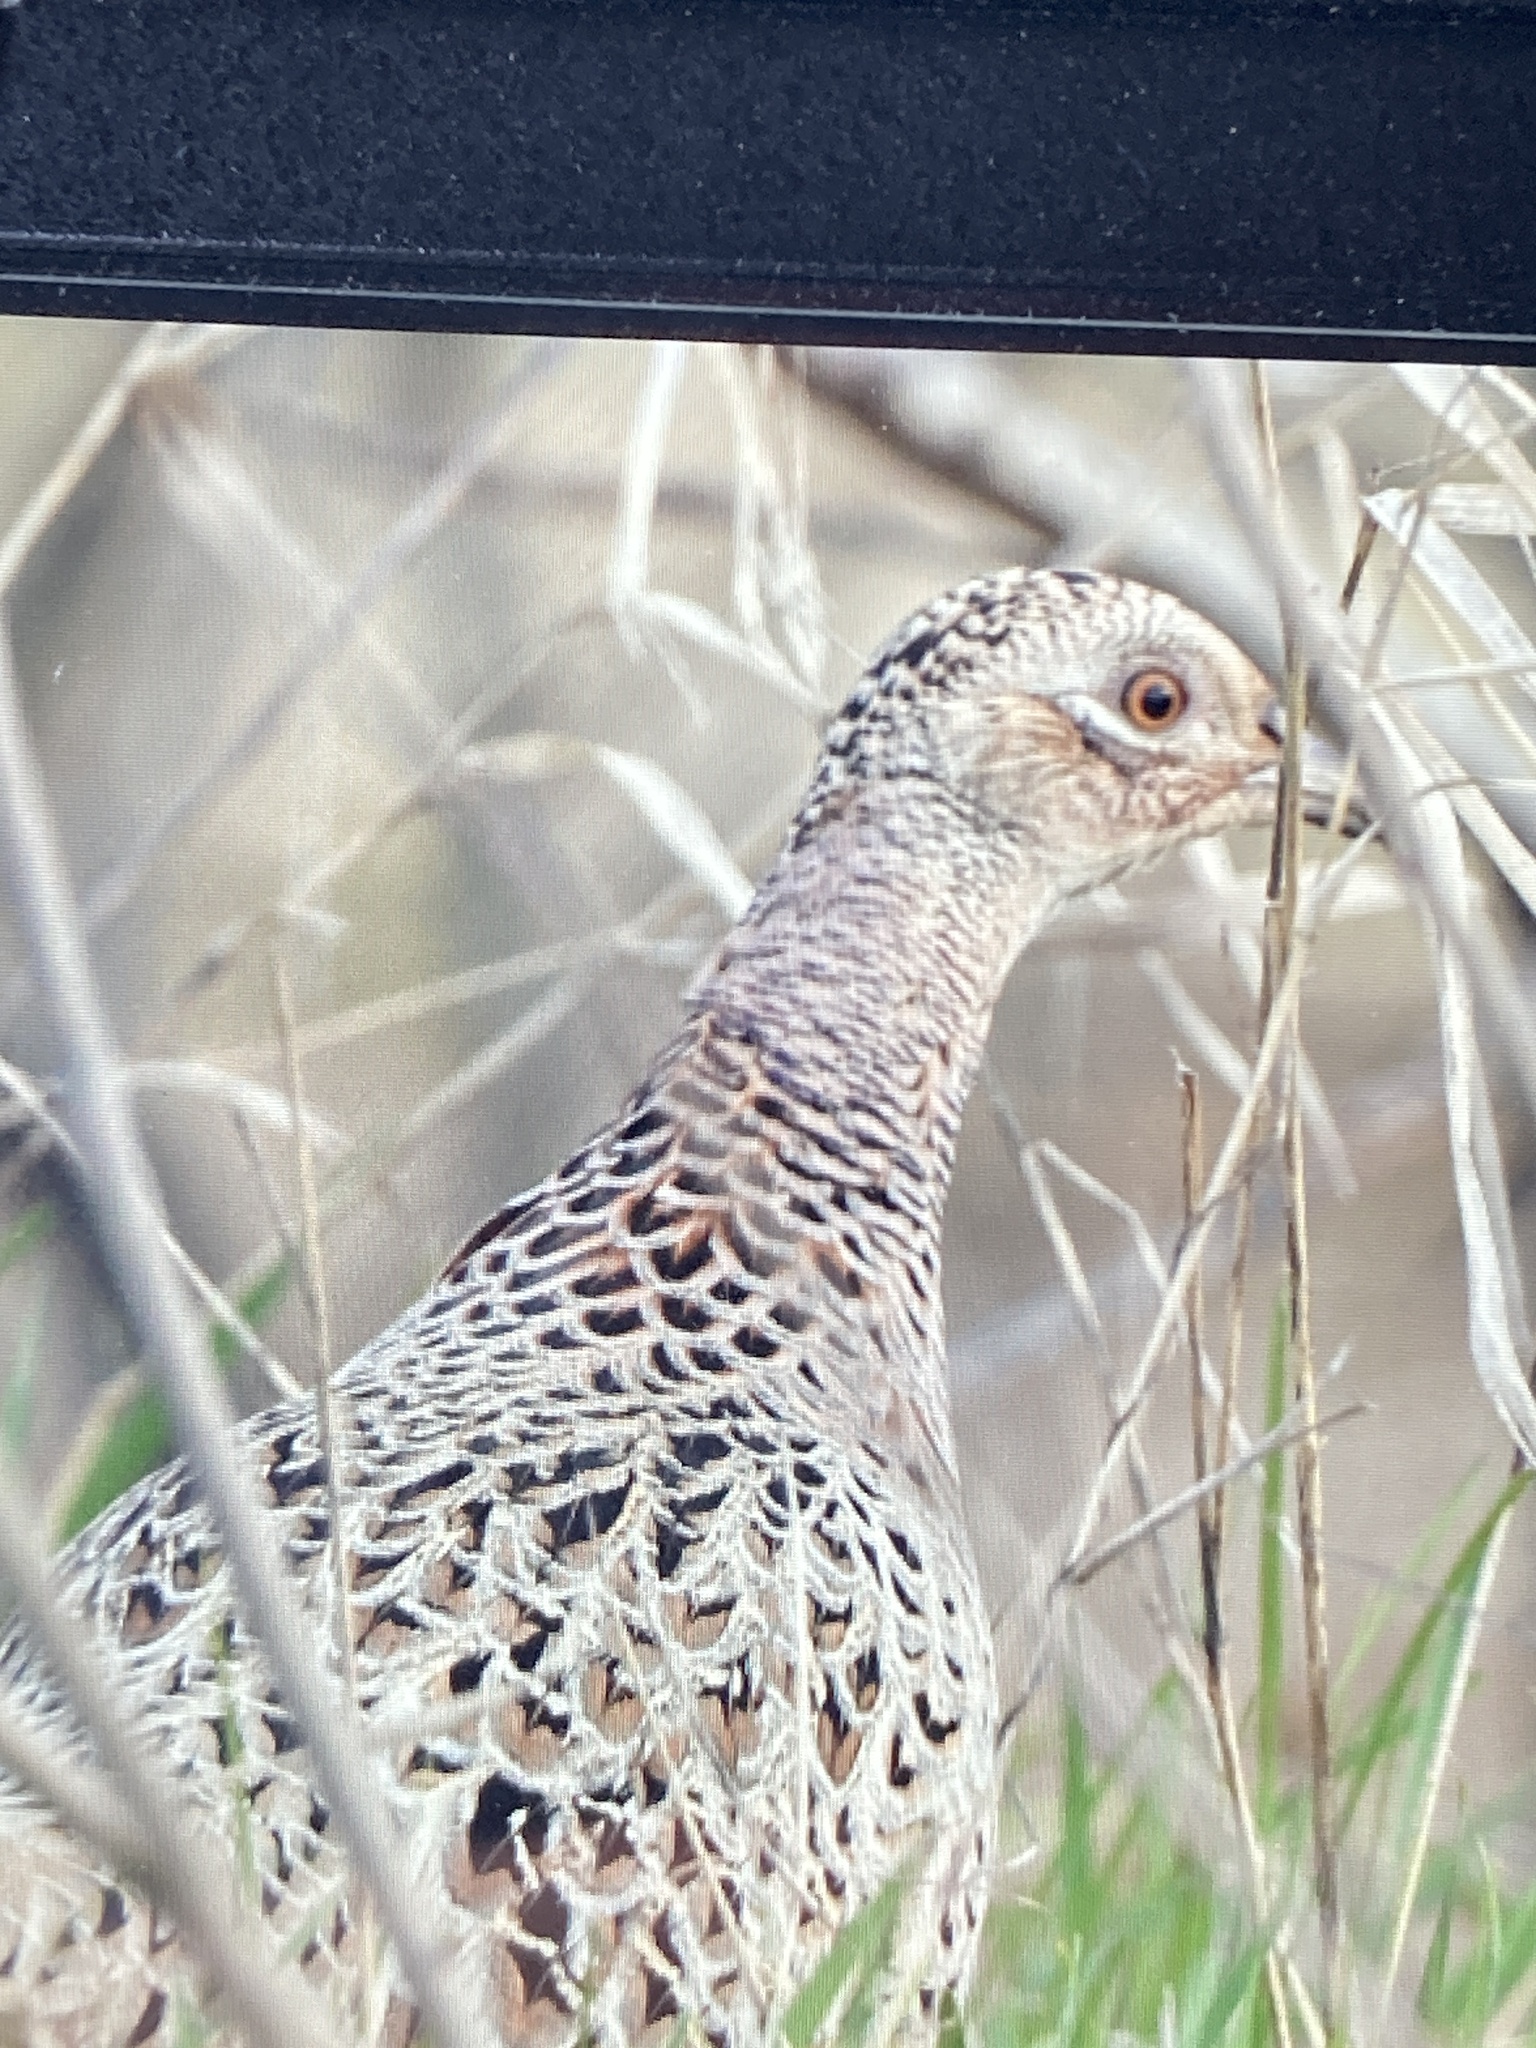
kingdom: Animalia
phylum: Chordata
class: Aves
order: Galliformes
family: Phasianidae
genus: Phasianus
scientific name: Phasianus colchicus
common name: Common pheasant
